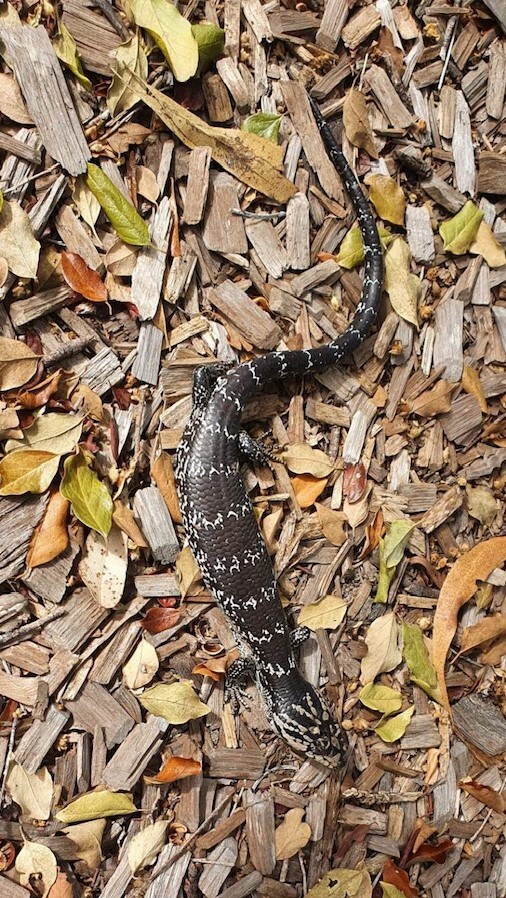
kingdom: Animalia
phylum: Chordata
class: Squamata
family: Scincidae
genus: Cyclodomorphus
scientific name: Cyclodomorphus gerrardii
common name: Pink-tongued lizard
